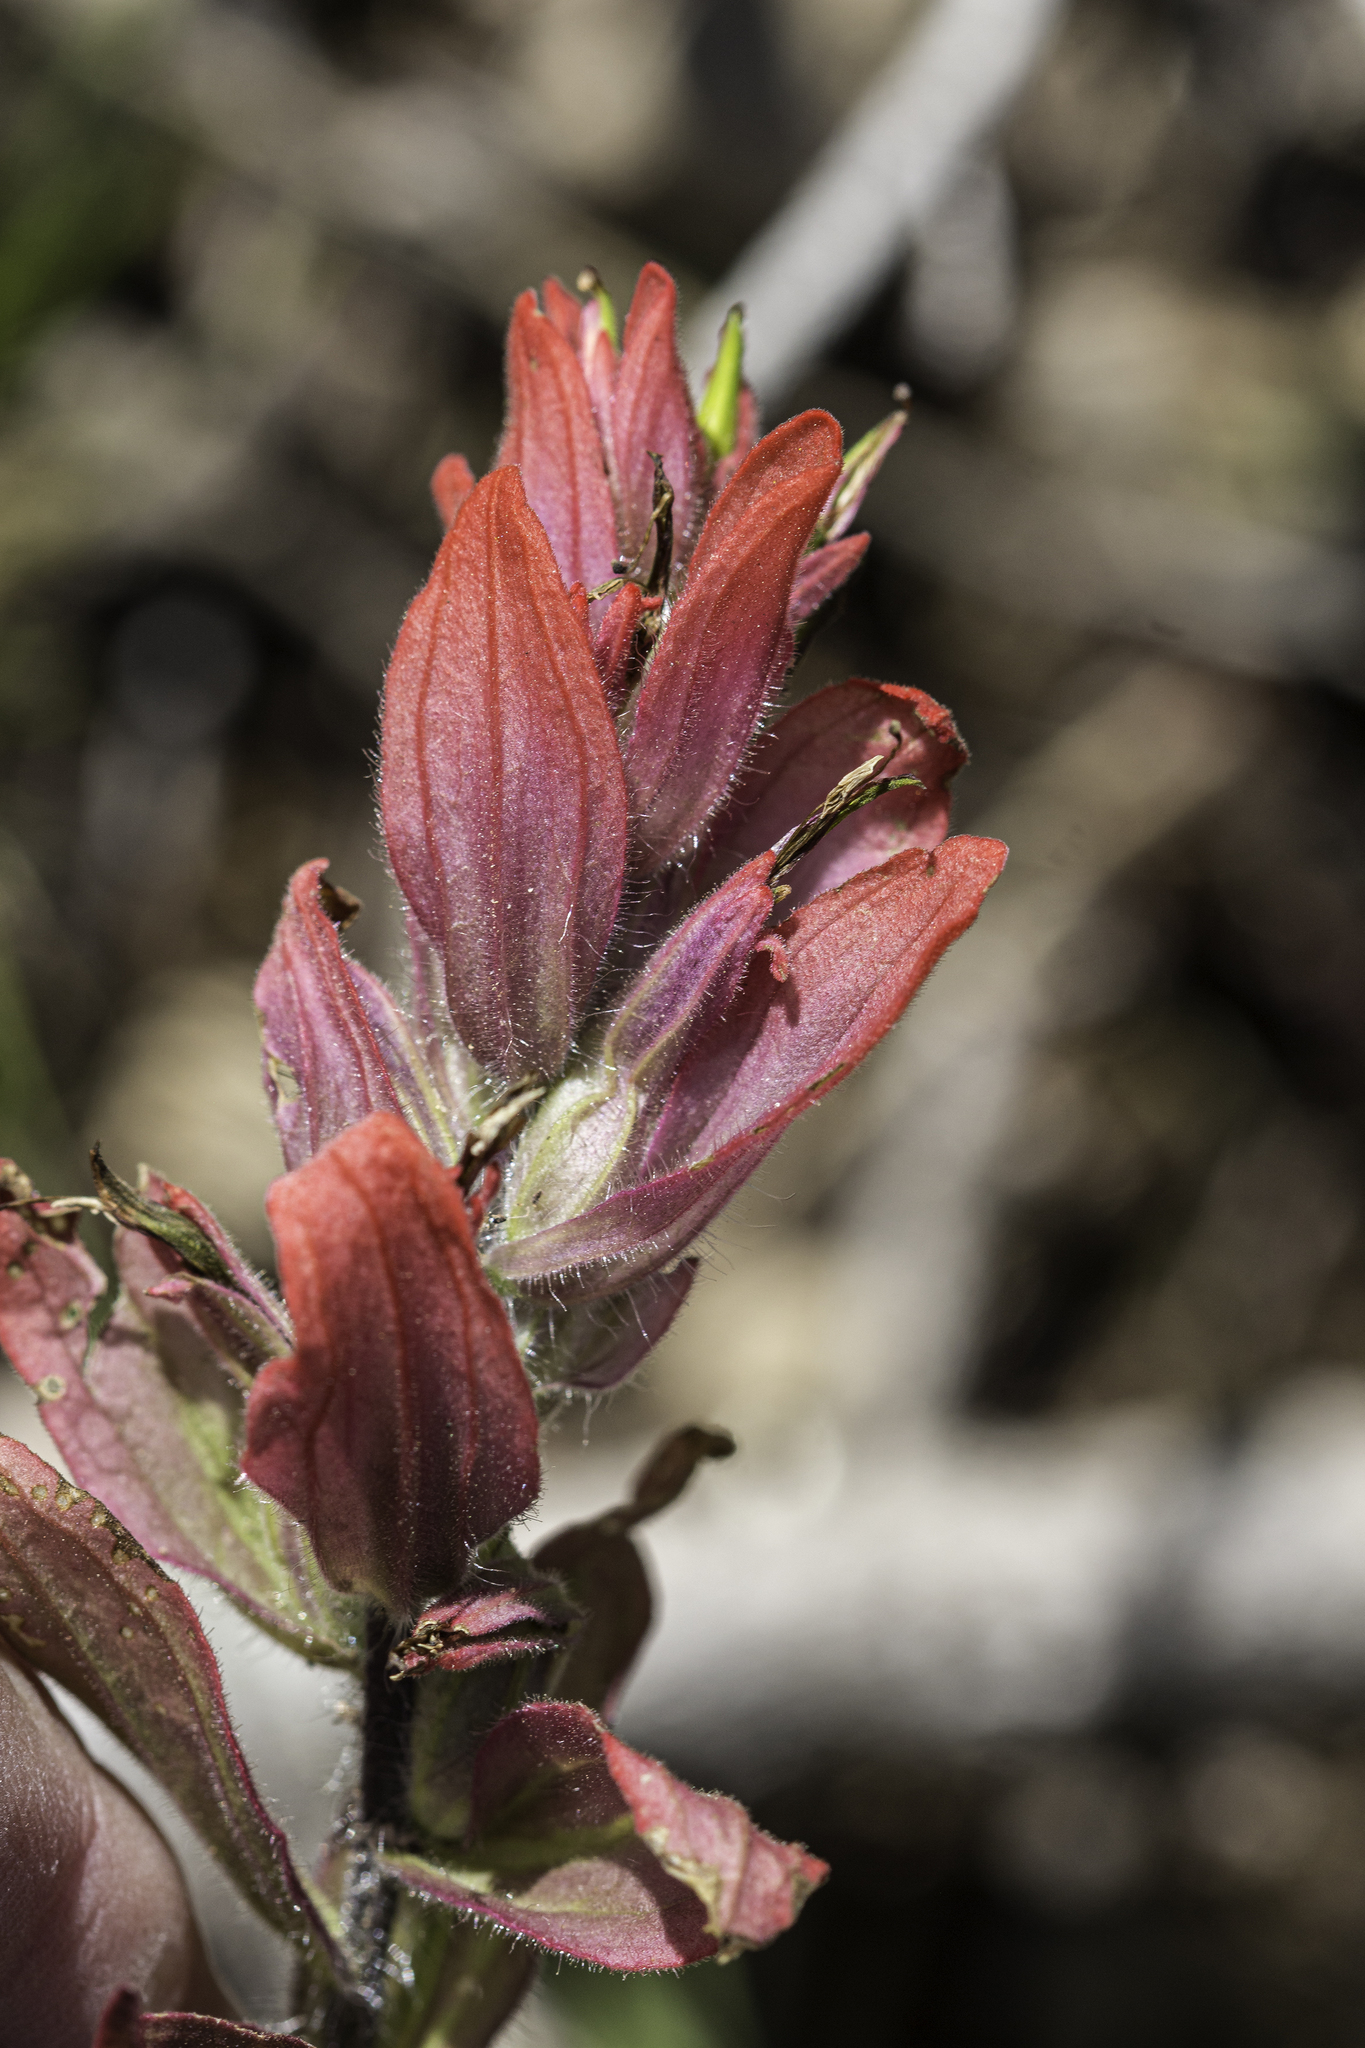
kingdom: Plantae
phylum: Tracheophyta
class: Magnoliopsida
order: Lamiales
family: Orobanchaceae
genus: Castilleja
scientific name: Castilleja rhexifolia
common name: Rocky mountain paintbrush
